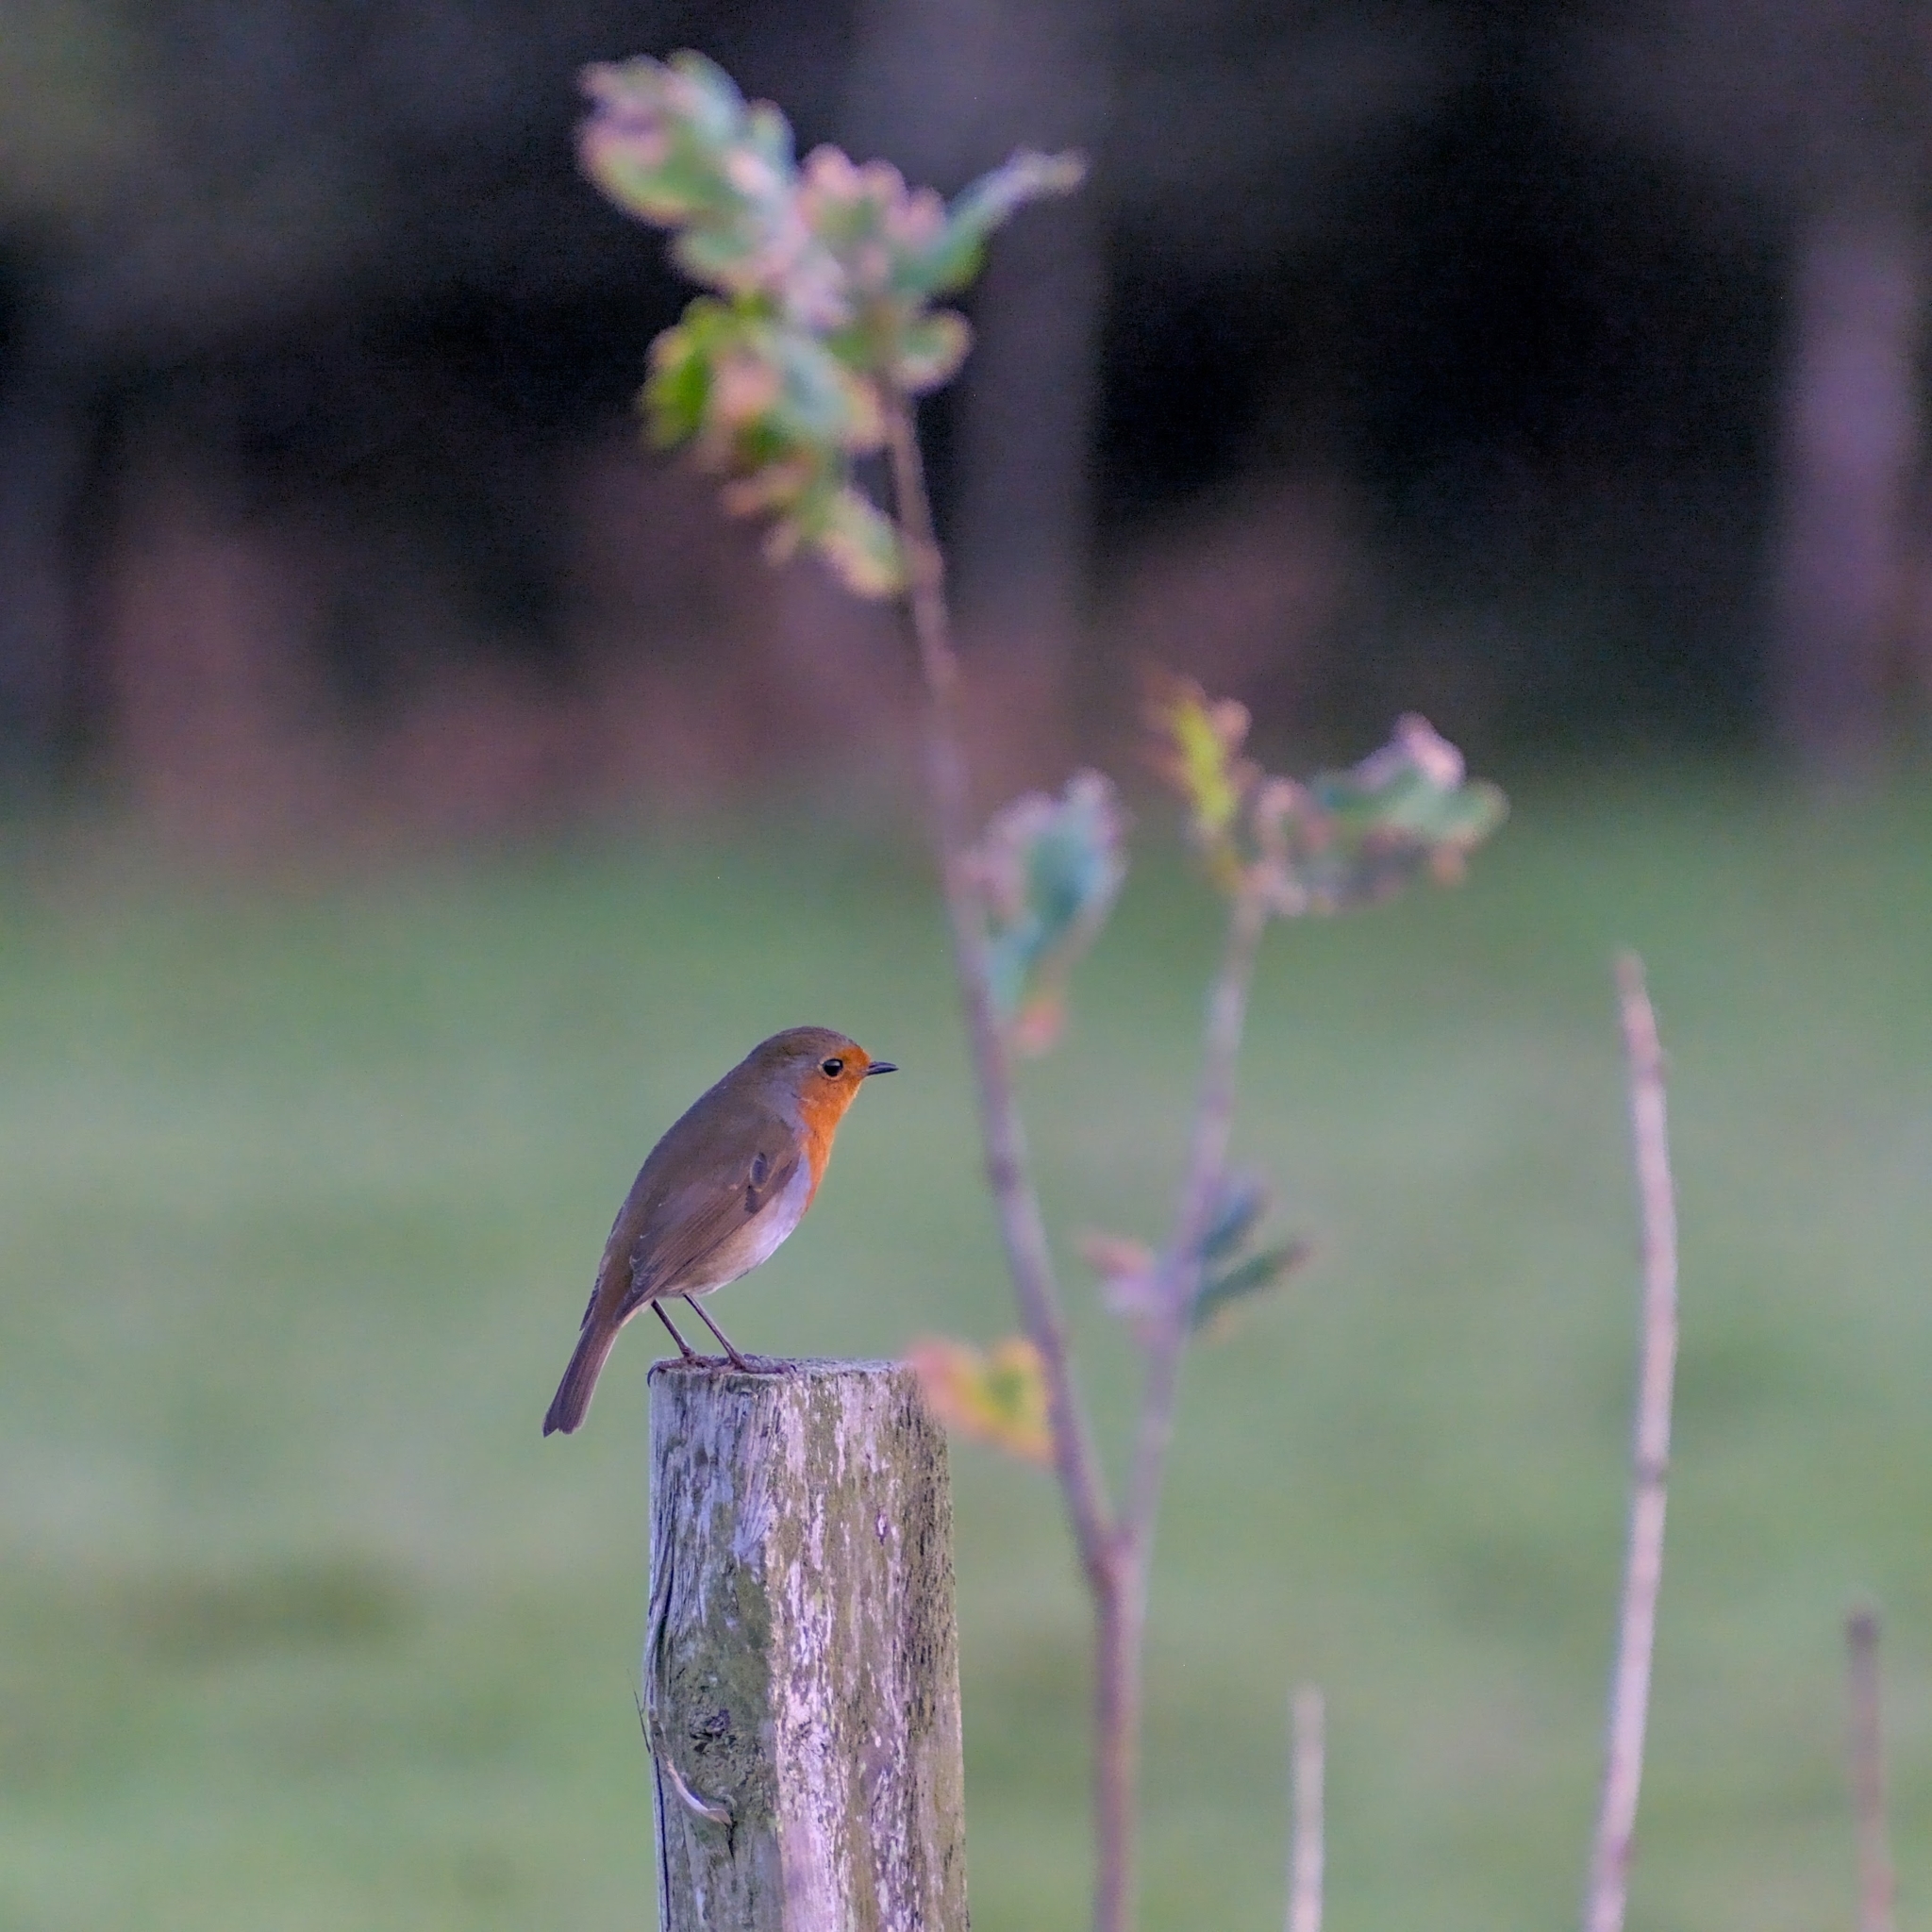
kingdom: Animalia
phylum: Chordata
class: Aves
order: Passeriformes
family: Muscicapidae
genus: Erithacus
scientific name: Erithacus rubecula
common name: European robin
